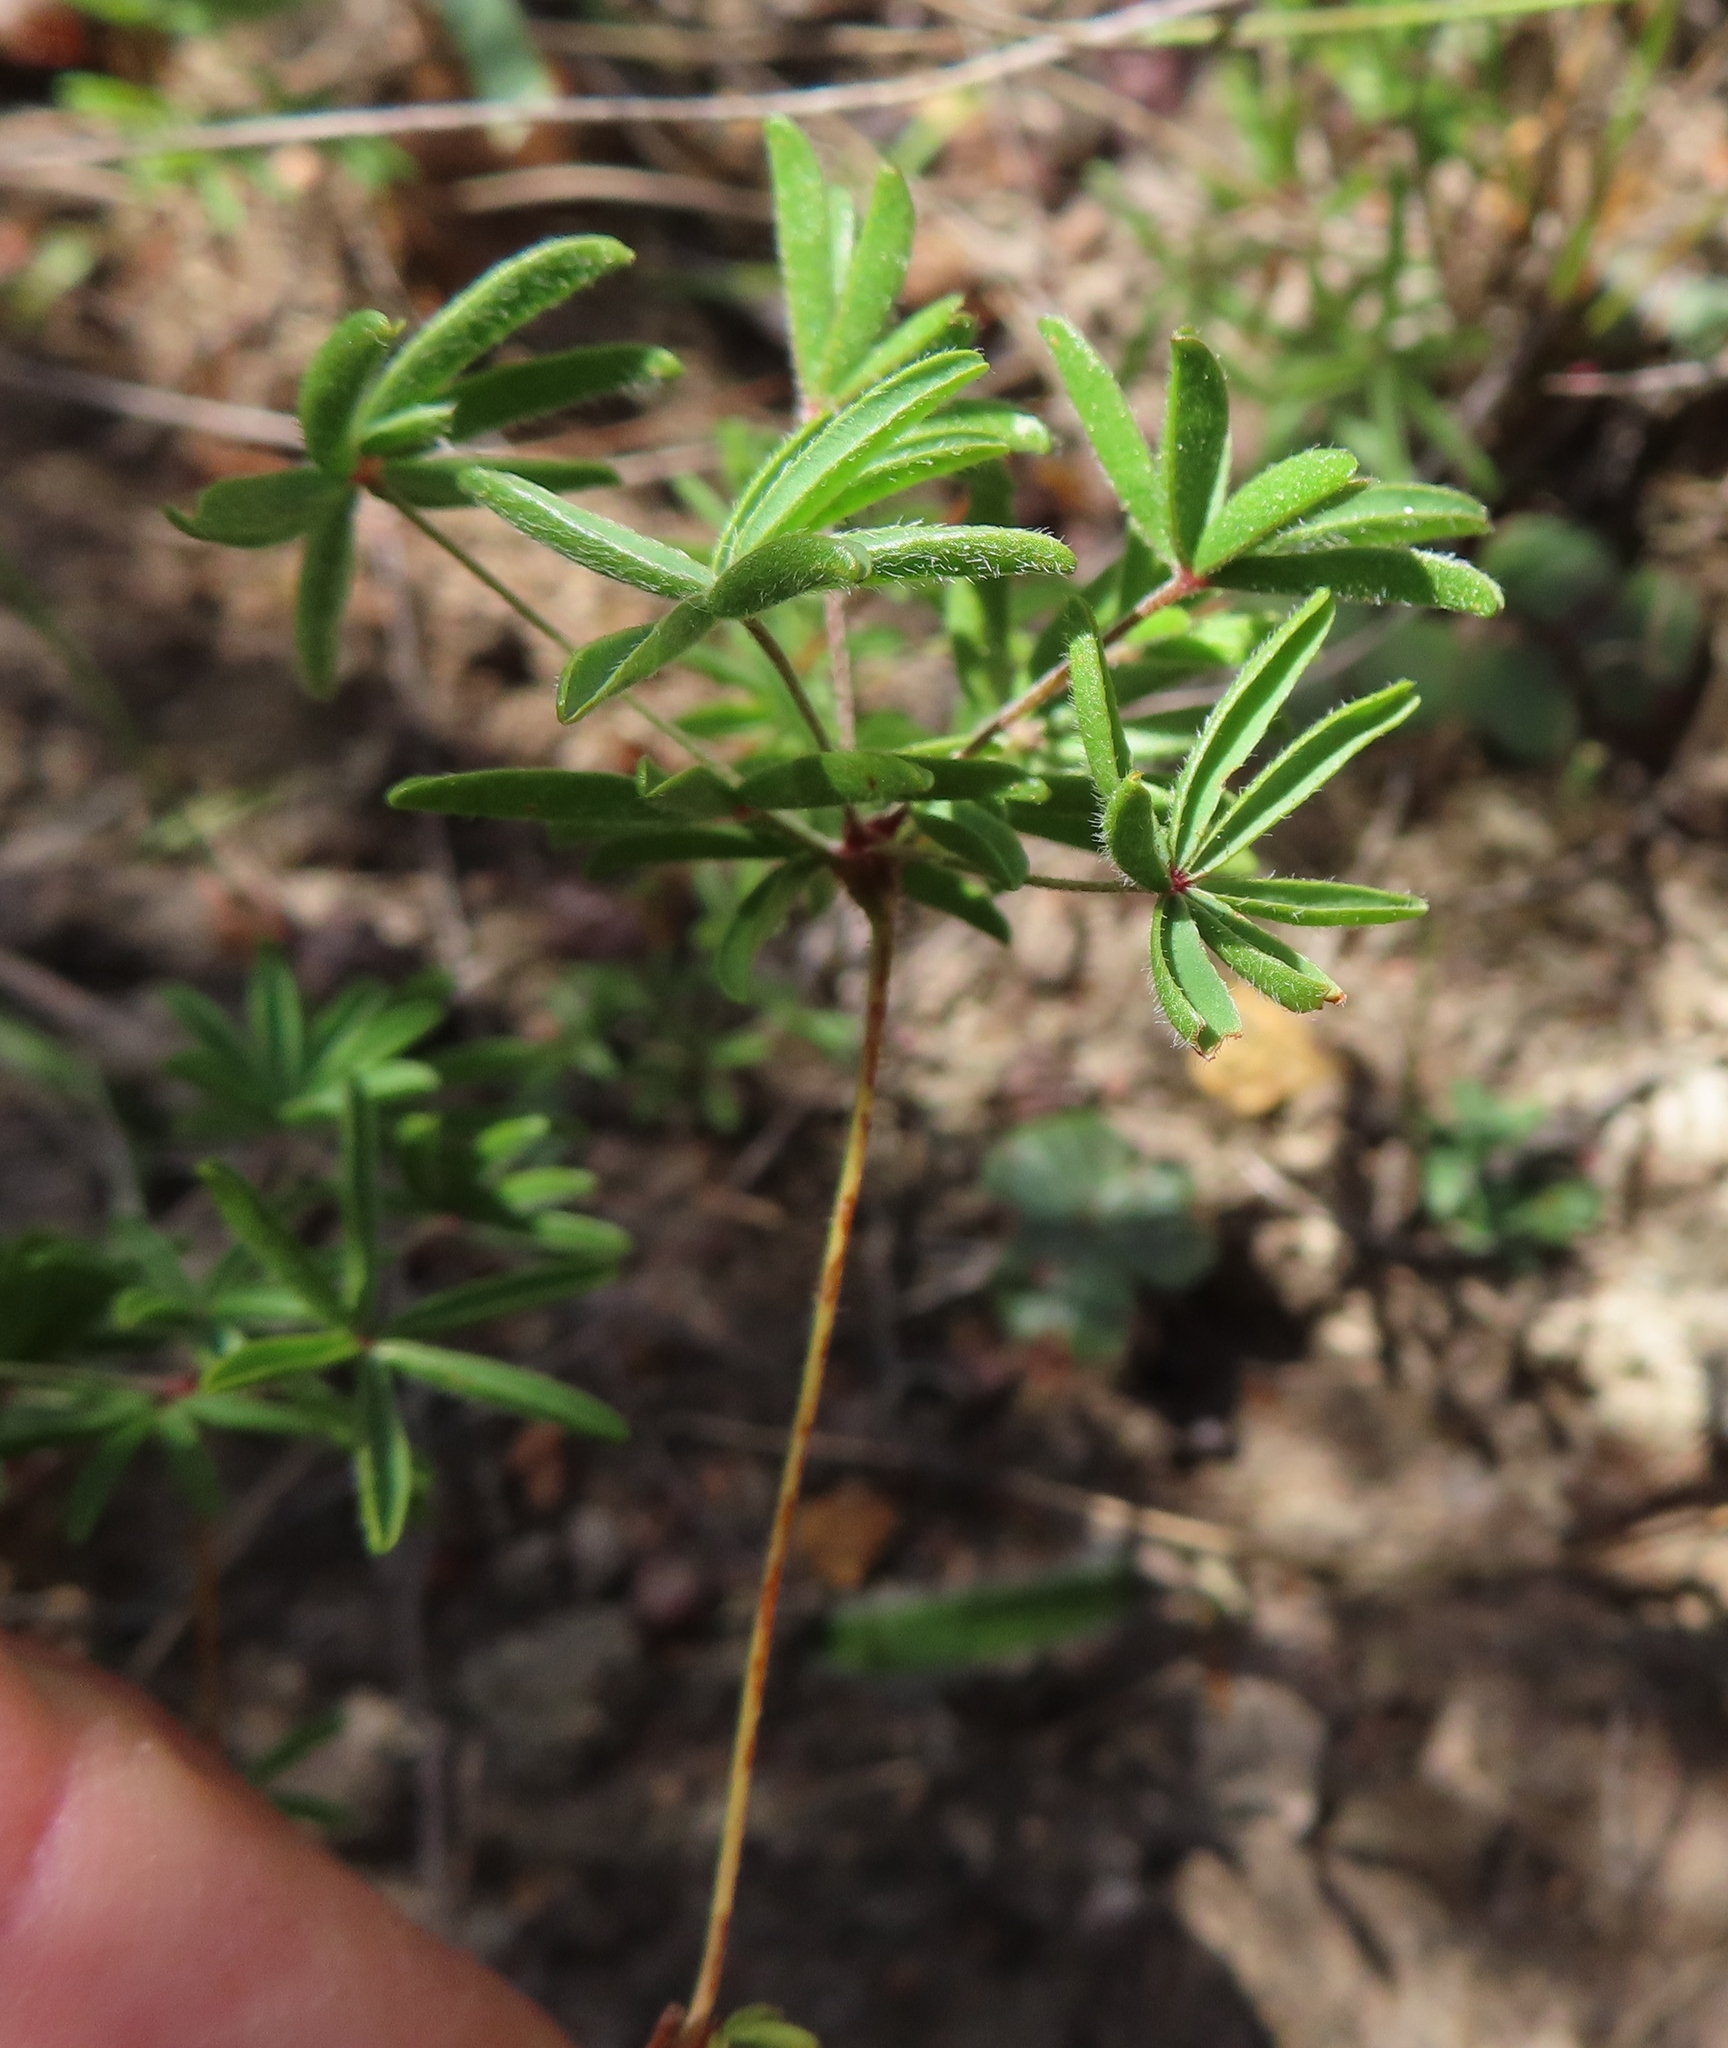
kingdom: Plantae
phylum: Tracheophyta
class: Magnoliopsida
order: Oxalidales
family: Oxalidaceae
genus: Oxalis
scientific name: Oxalis engleriana
